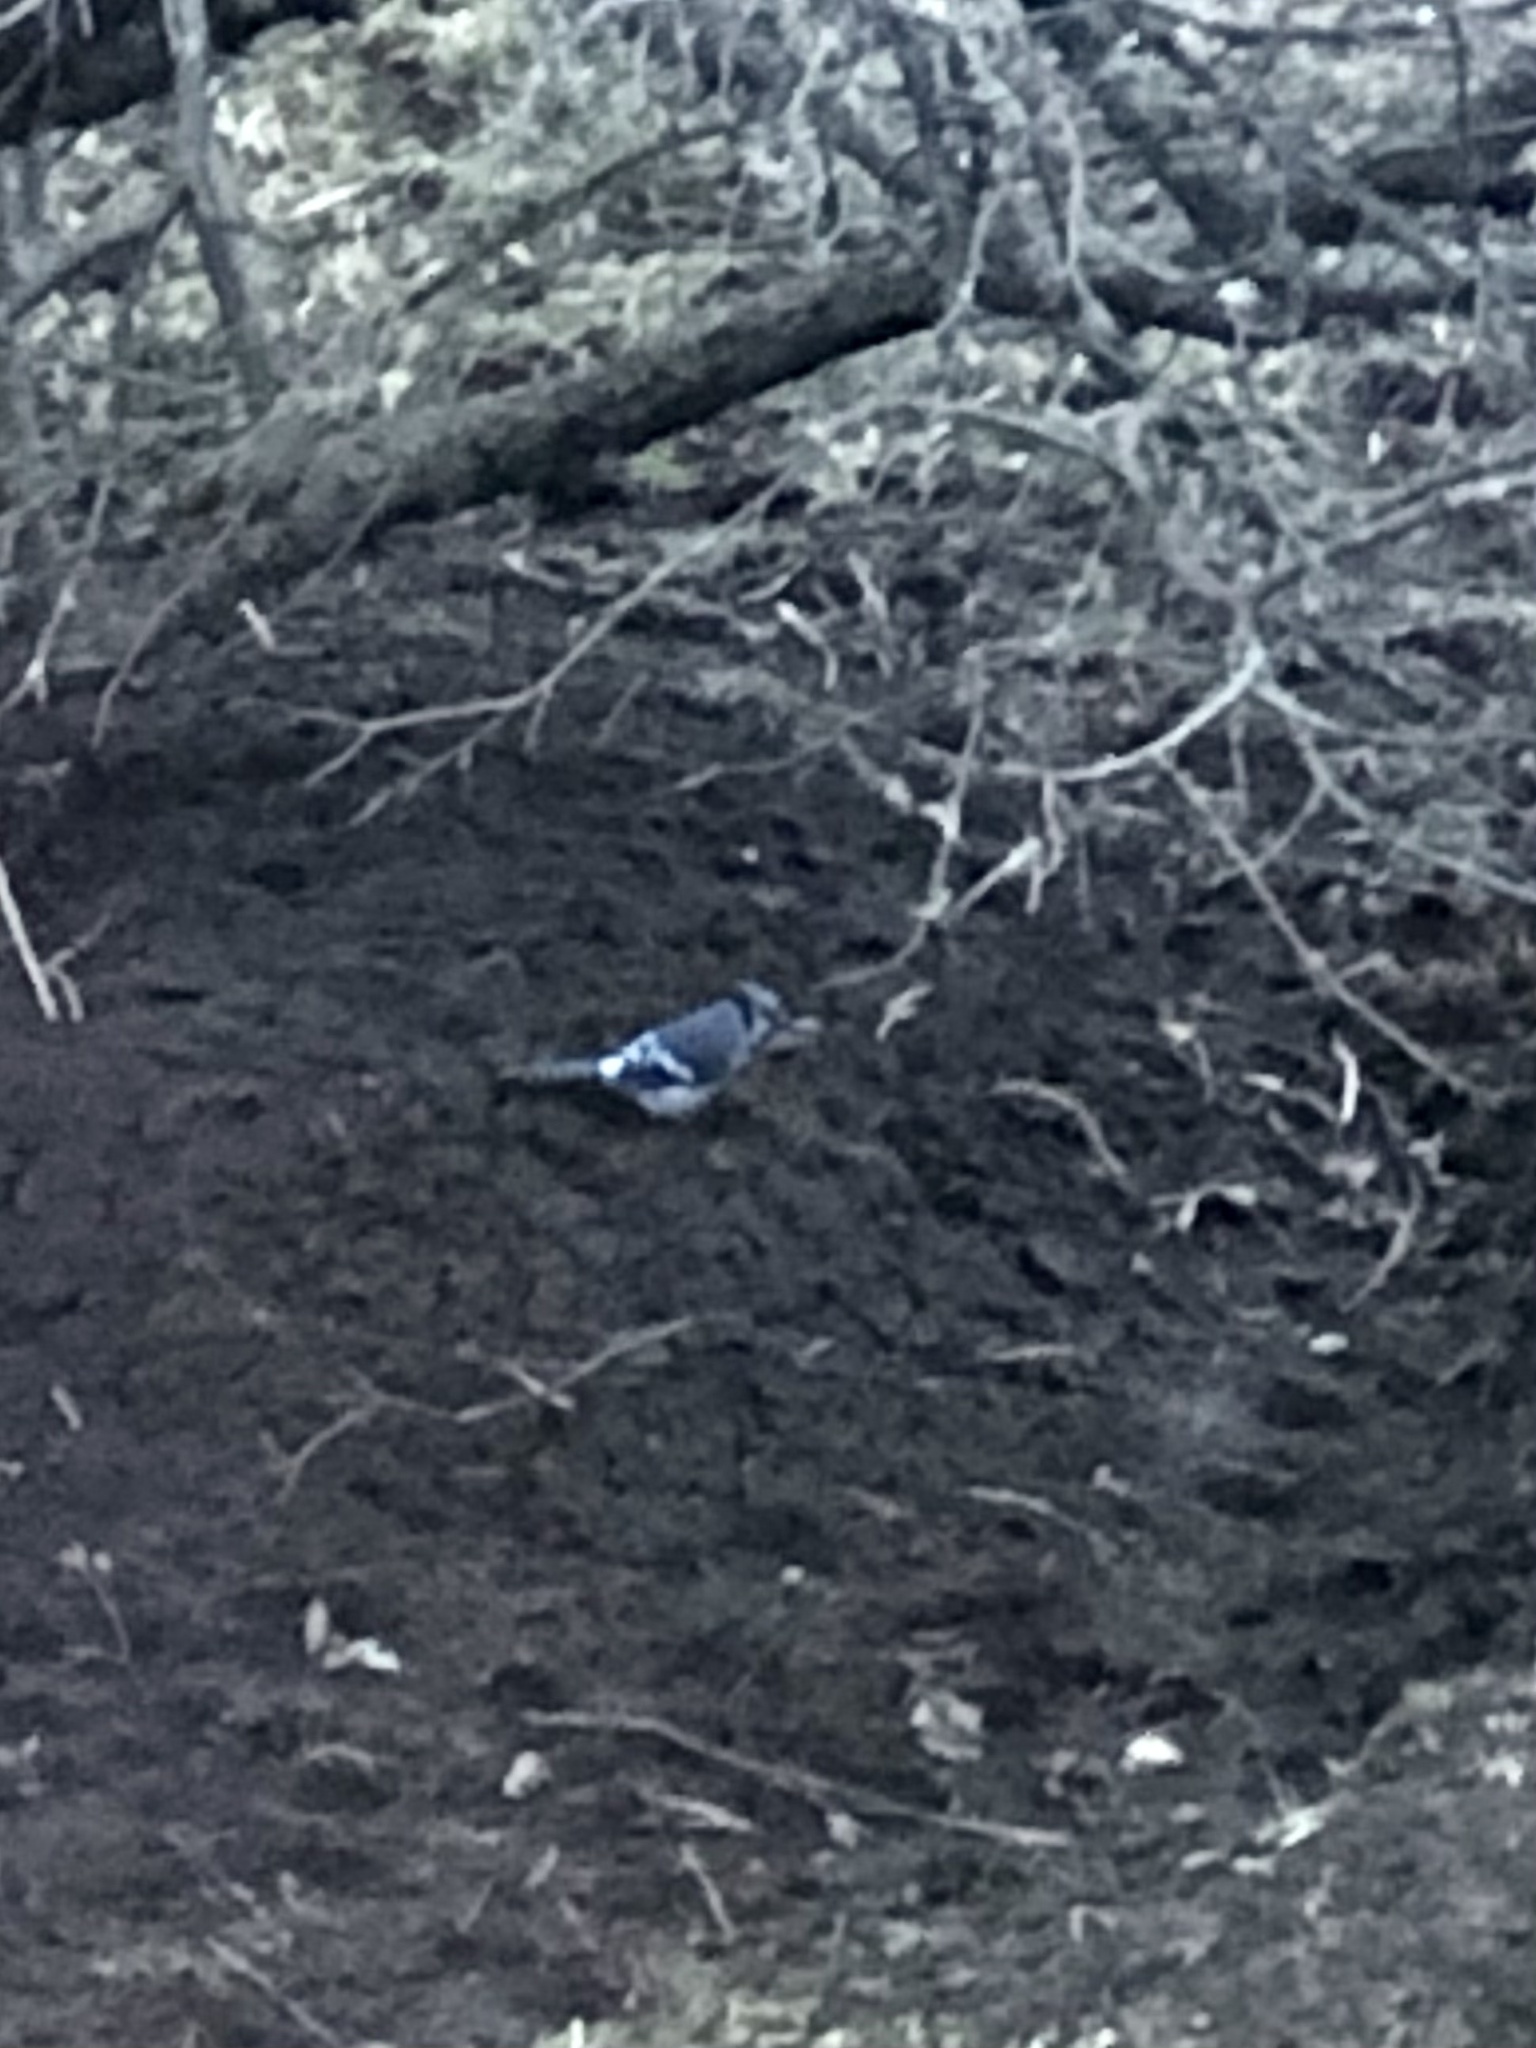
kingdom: Animalia
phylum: Chordata
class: Aves
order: Passeriformes
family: Corvidae
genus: Cyanocitta
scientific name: Cyanocitta cristata
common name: Blue jay
